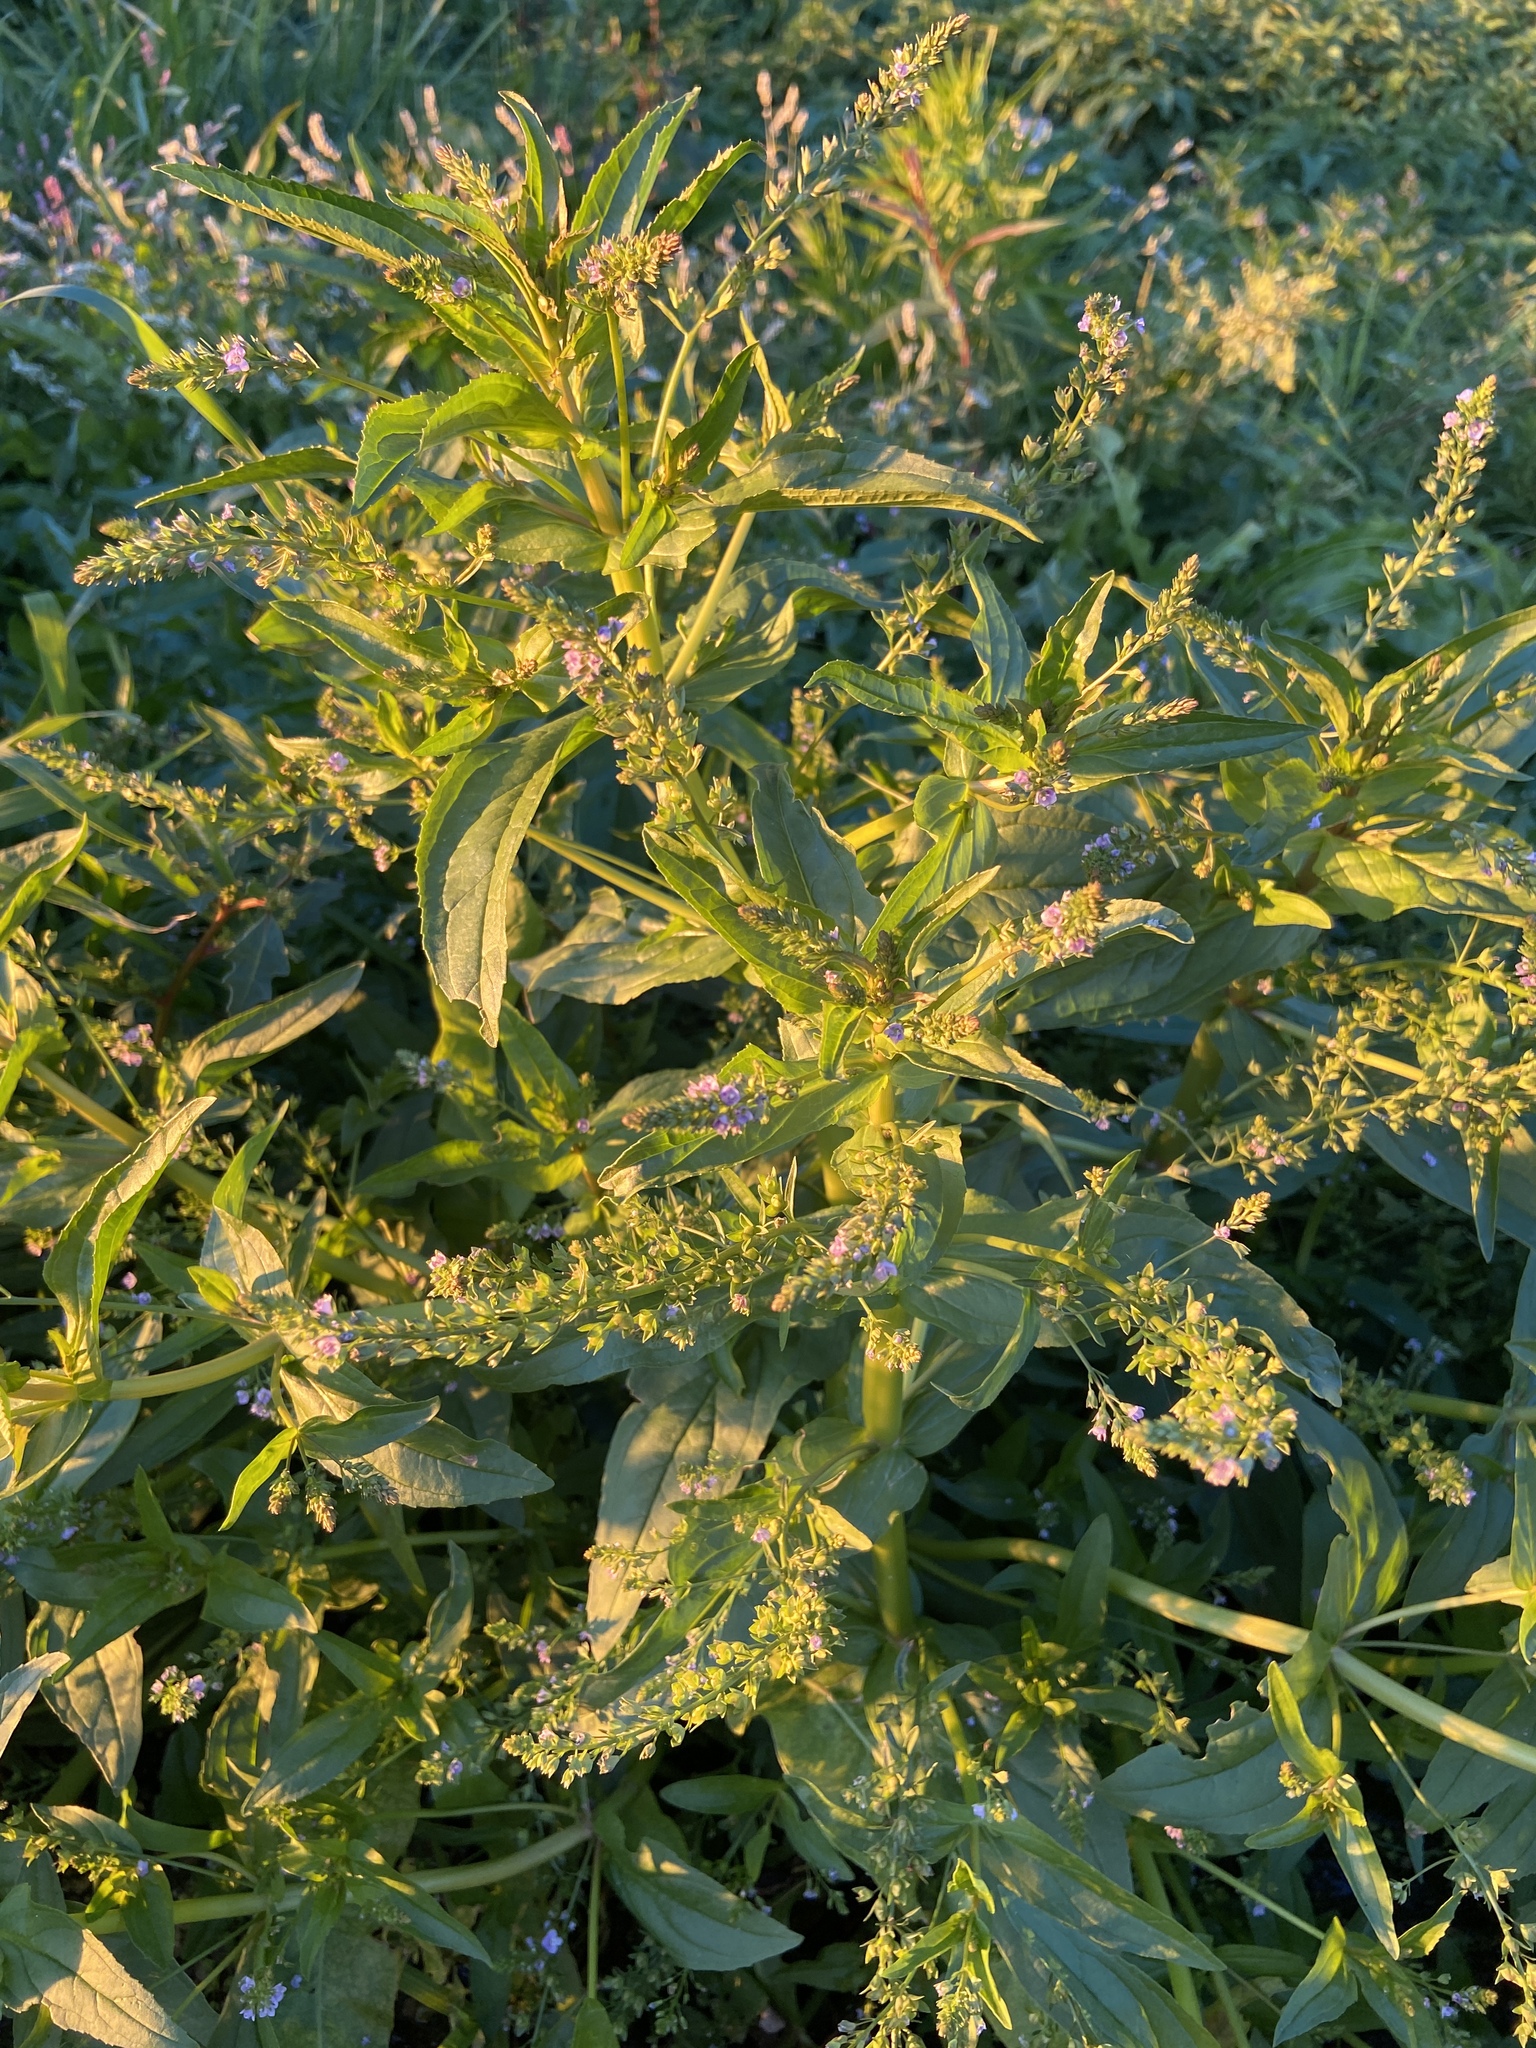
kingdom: Plantae
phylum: Tracheophyta
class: Magnoliopsida
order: Lamiales
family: Plantaginaceae
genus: Veronica
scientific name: Veronica anagallis-aquatica
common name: Water speedwell
